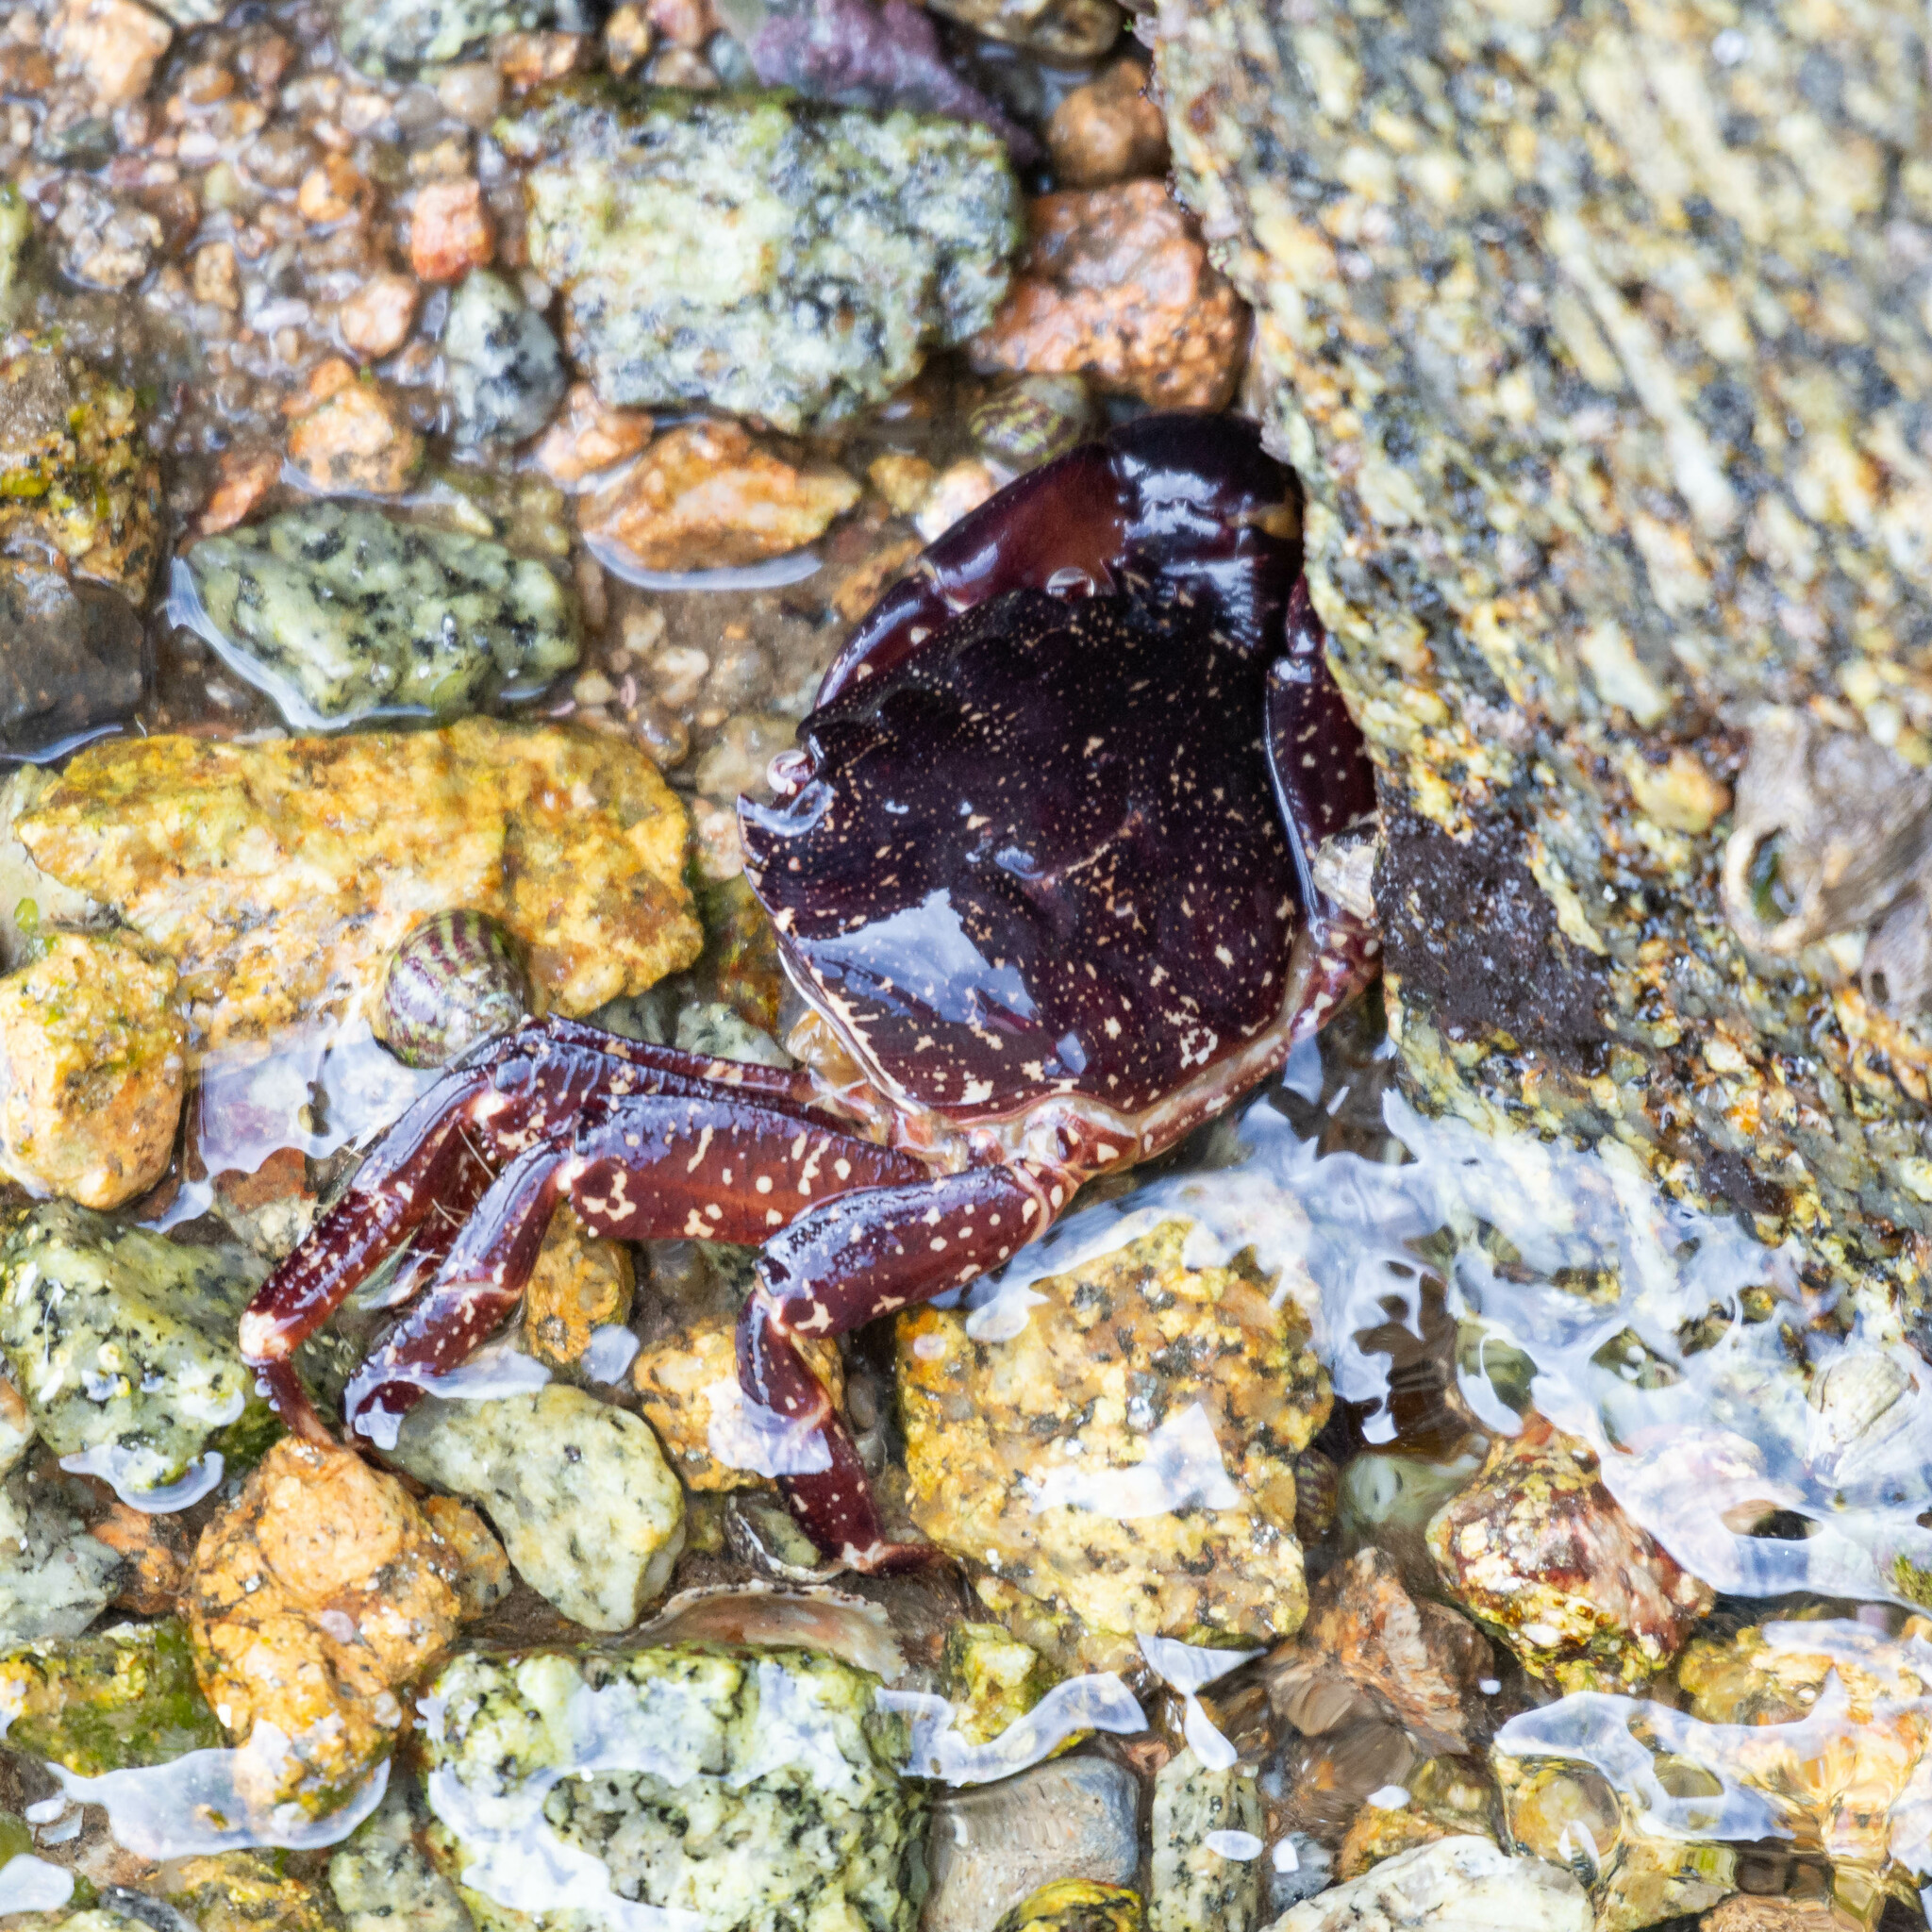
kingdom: Animalia
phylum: Arthropoda
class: Malacostraca
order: Decapoda
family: Grapsidae
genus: Pachygrapsus
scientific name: Pachygrapsus marmoratus
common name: Marbled rock crab
